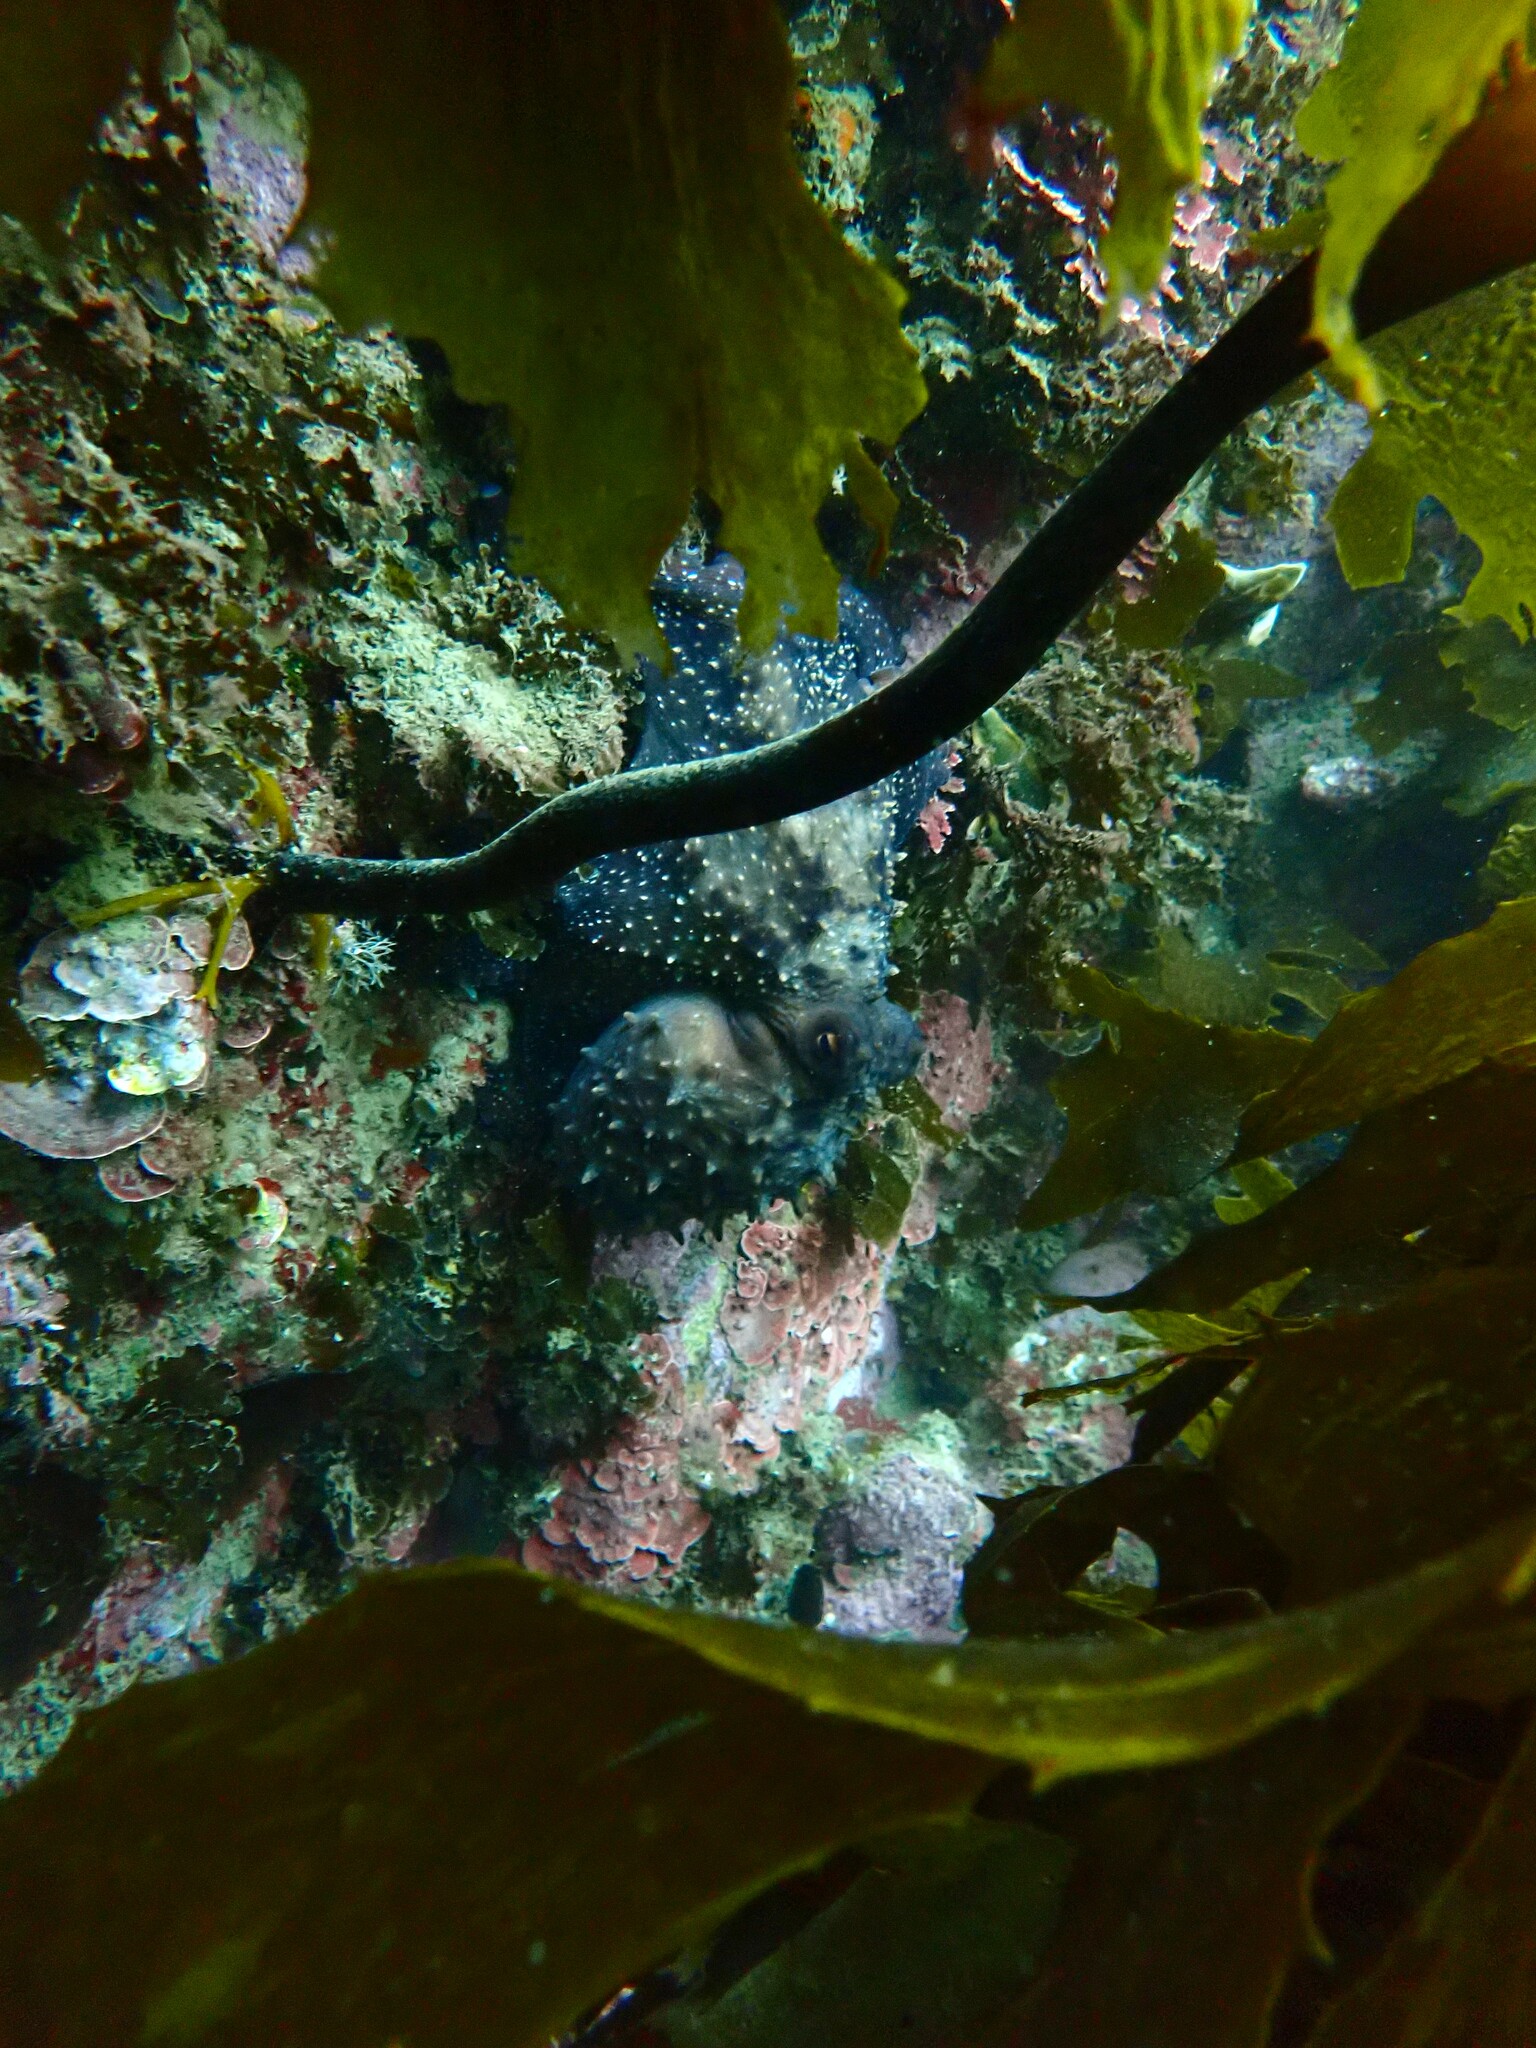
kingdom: Animalia
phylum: Mollusca
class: Cephalopoda
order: Octopoda
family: Octopodidae
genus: Macroctopus
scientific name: Macroctopus maorum
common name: Maori octopus
